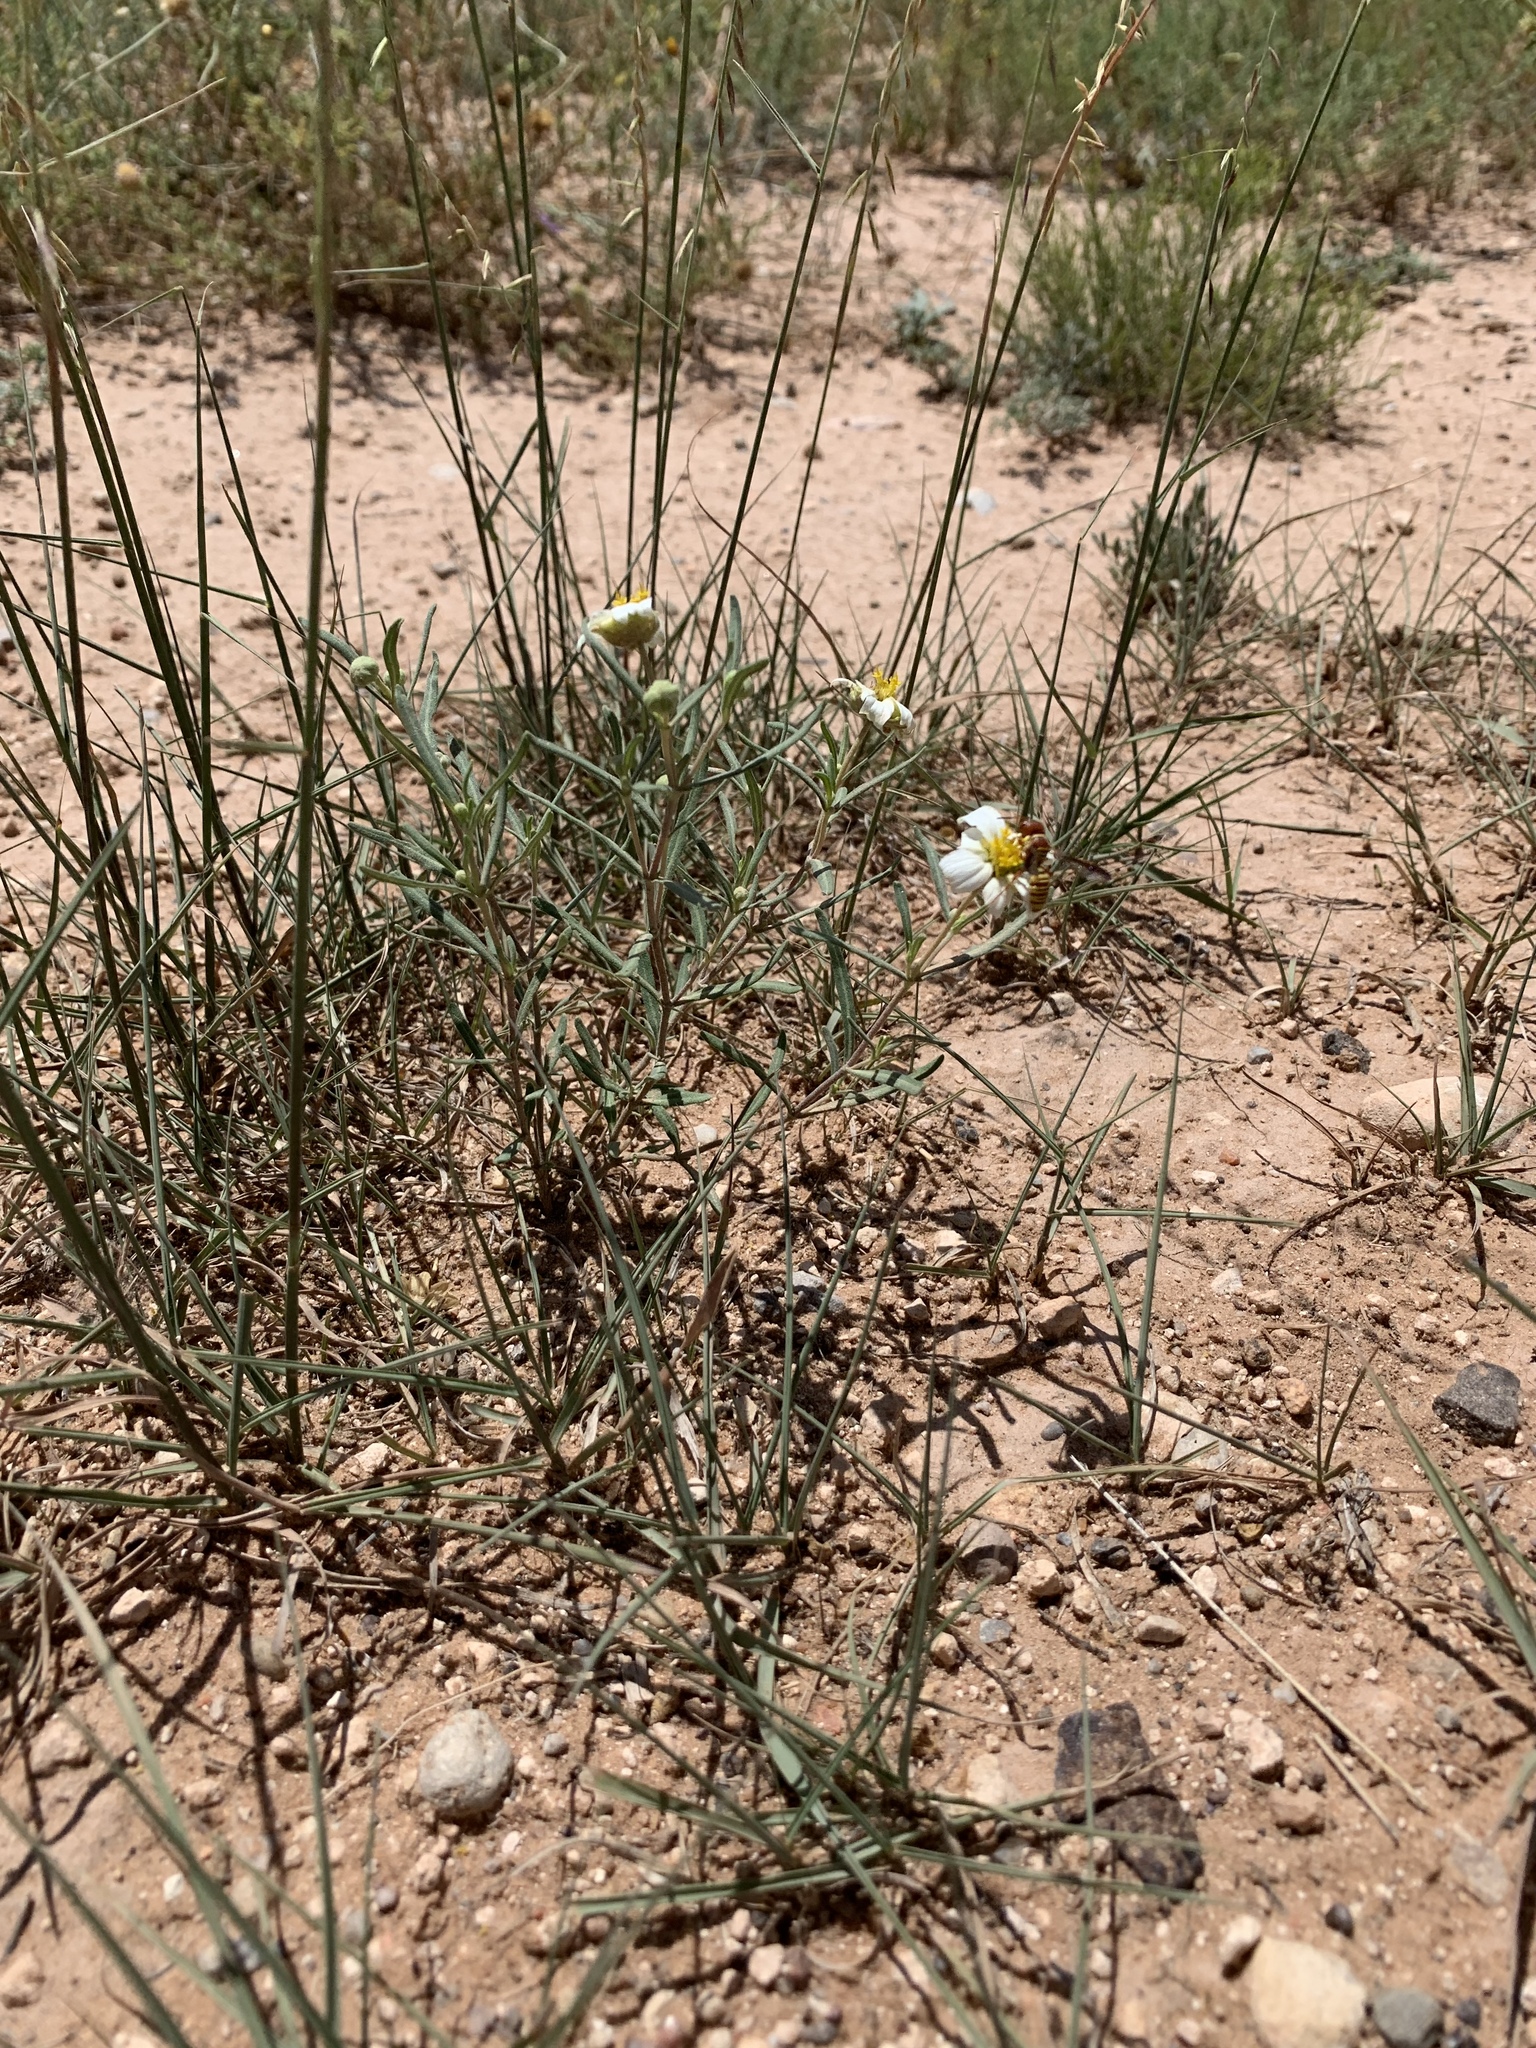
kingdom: Plantae
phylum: Tracheophyta
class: Magnoliopsida
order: Asterales
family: Asteraceae
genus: Melampodium
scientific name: Melampodium leucanthum
